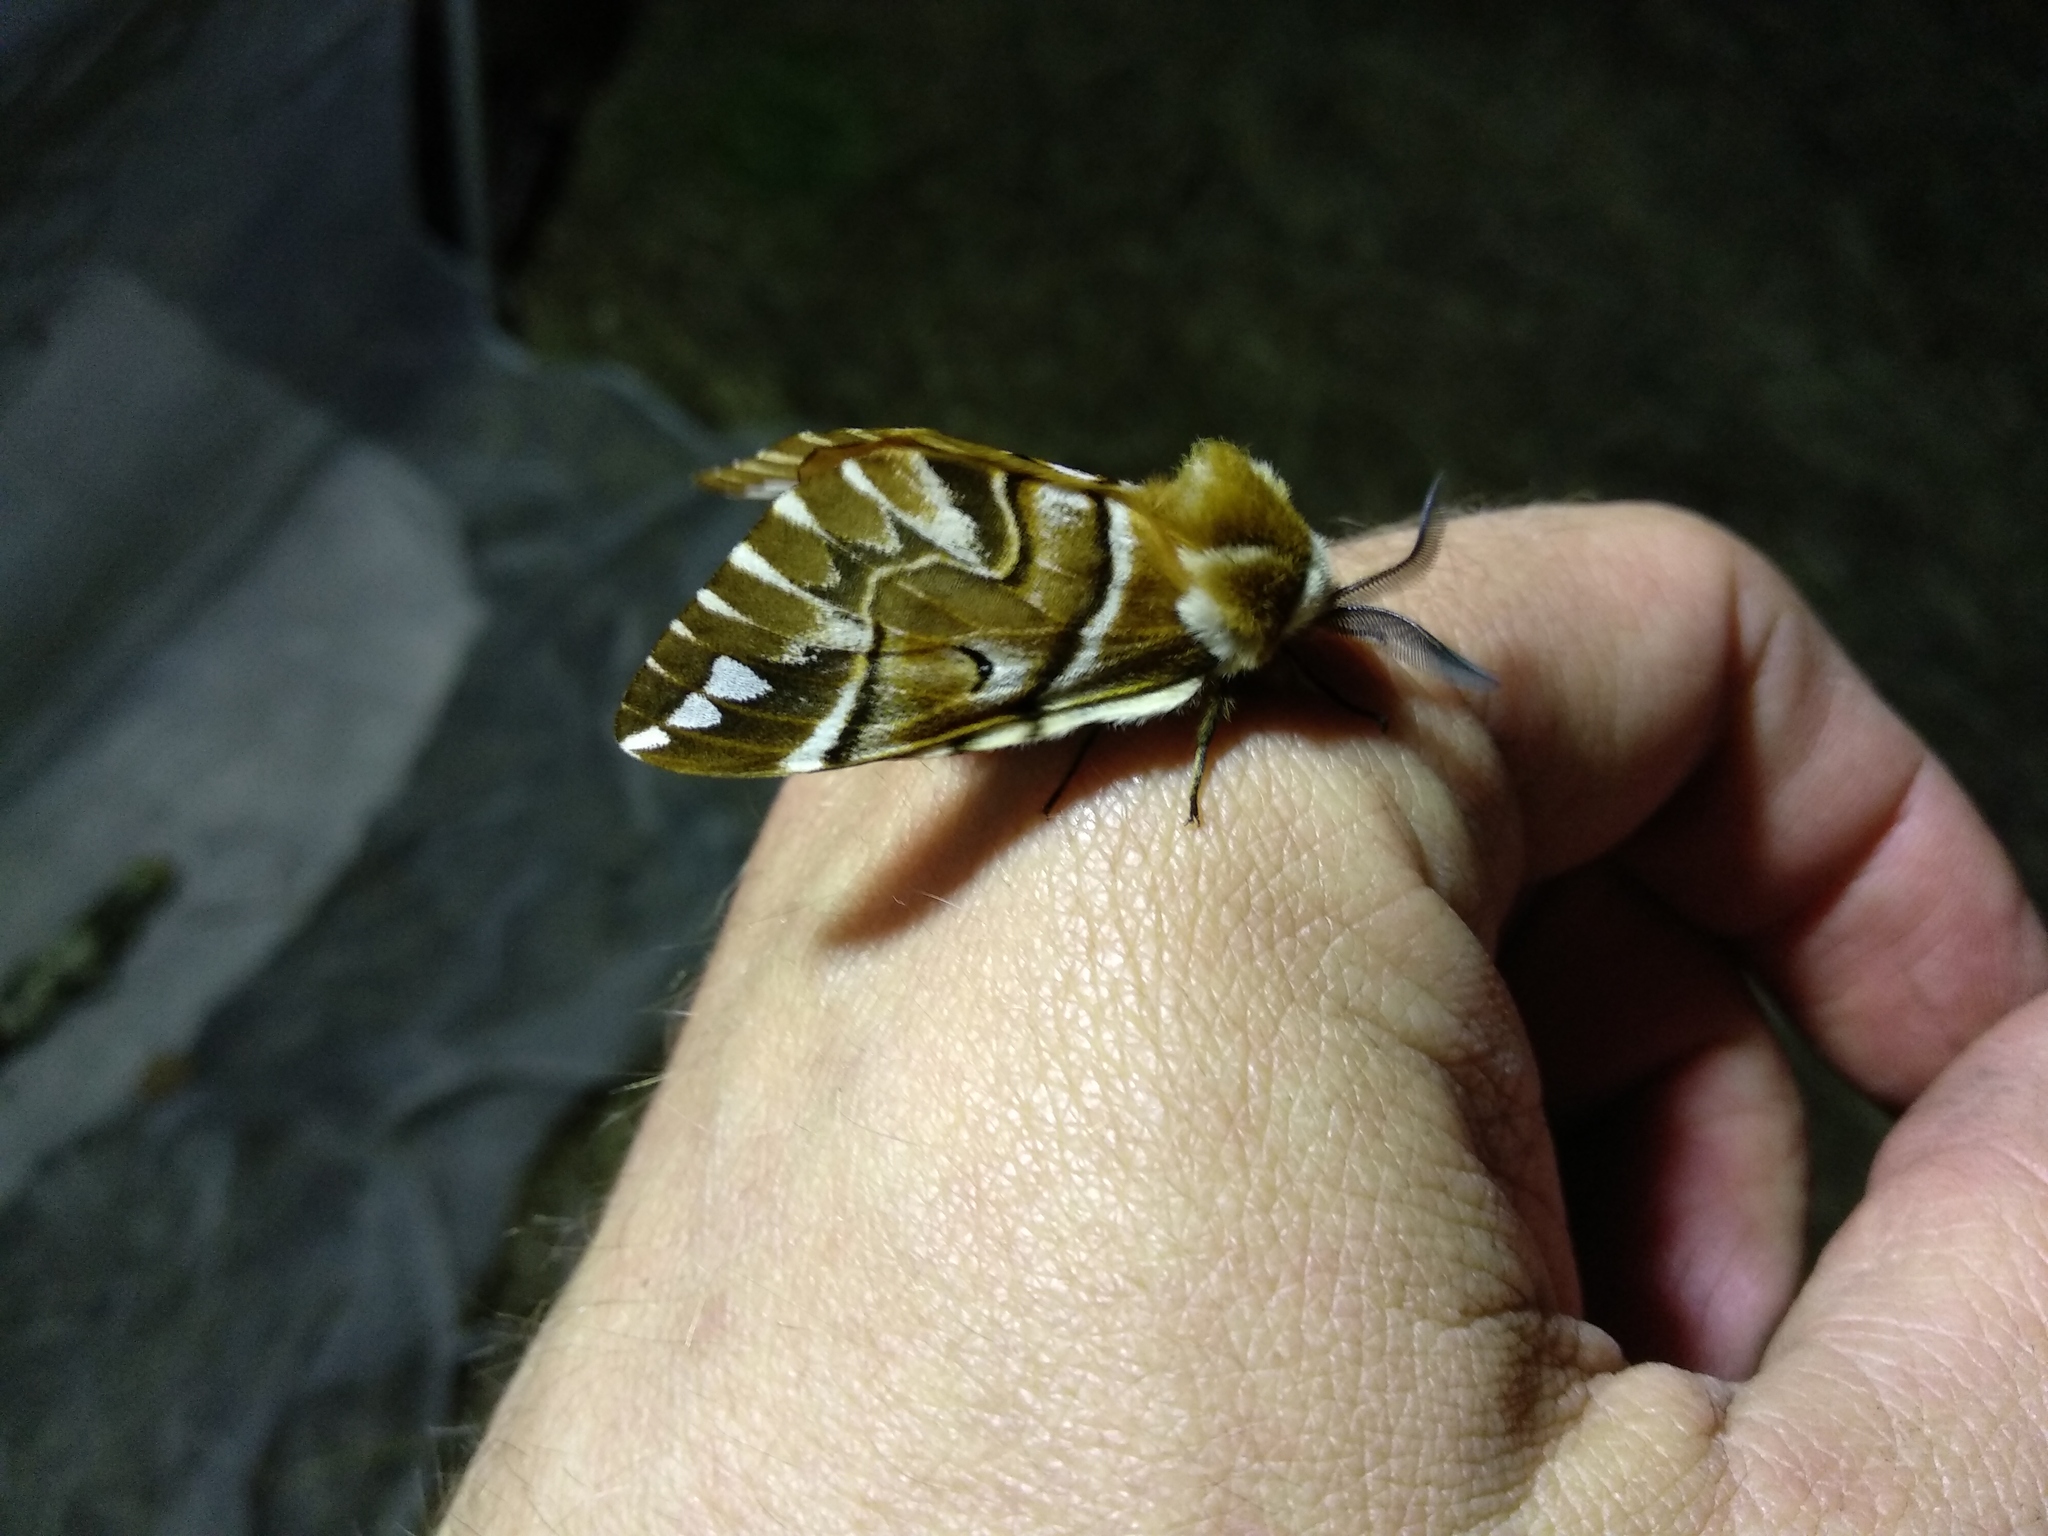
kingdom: Animalia
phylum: Arthropoda
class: Insecta
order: Lepidoptera
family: Endromidae
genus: Endromis
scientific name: Endromis versicolora
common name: Kentish glory
